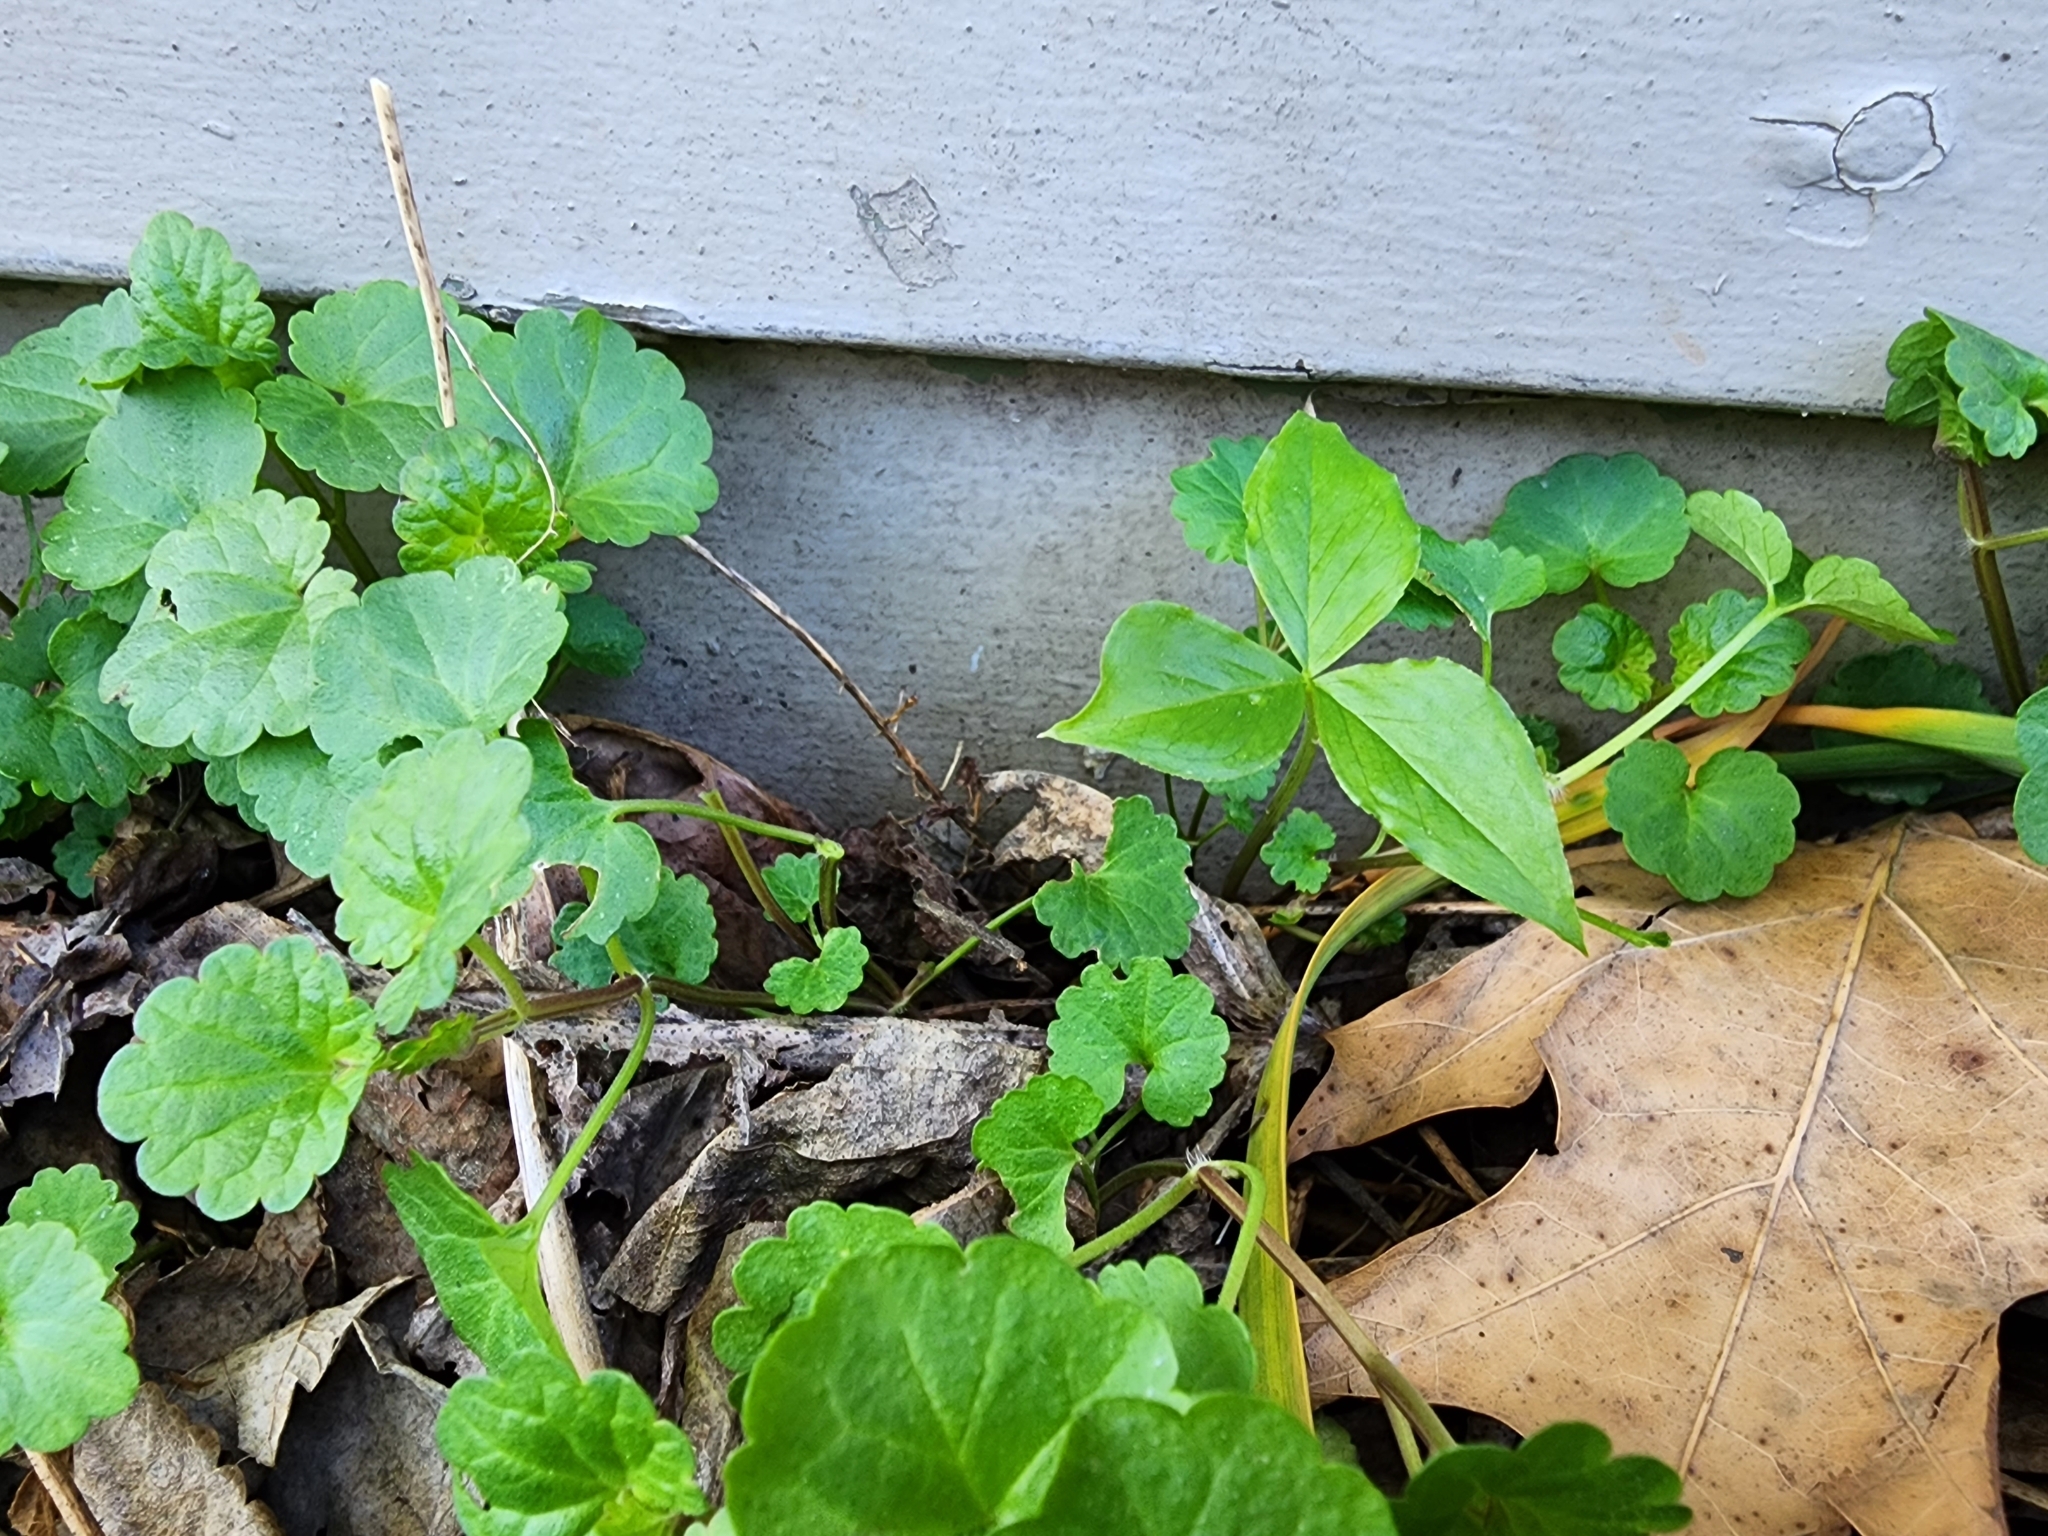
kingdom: Plantae
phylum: Tracheophyta
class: Liliopsida
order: Alismatales
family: Araceae
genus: Arisaema
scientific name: Arisaema triphyllum
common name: Jack-in-the-pulpit
